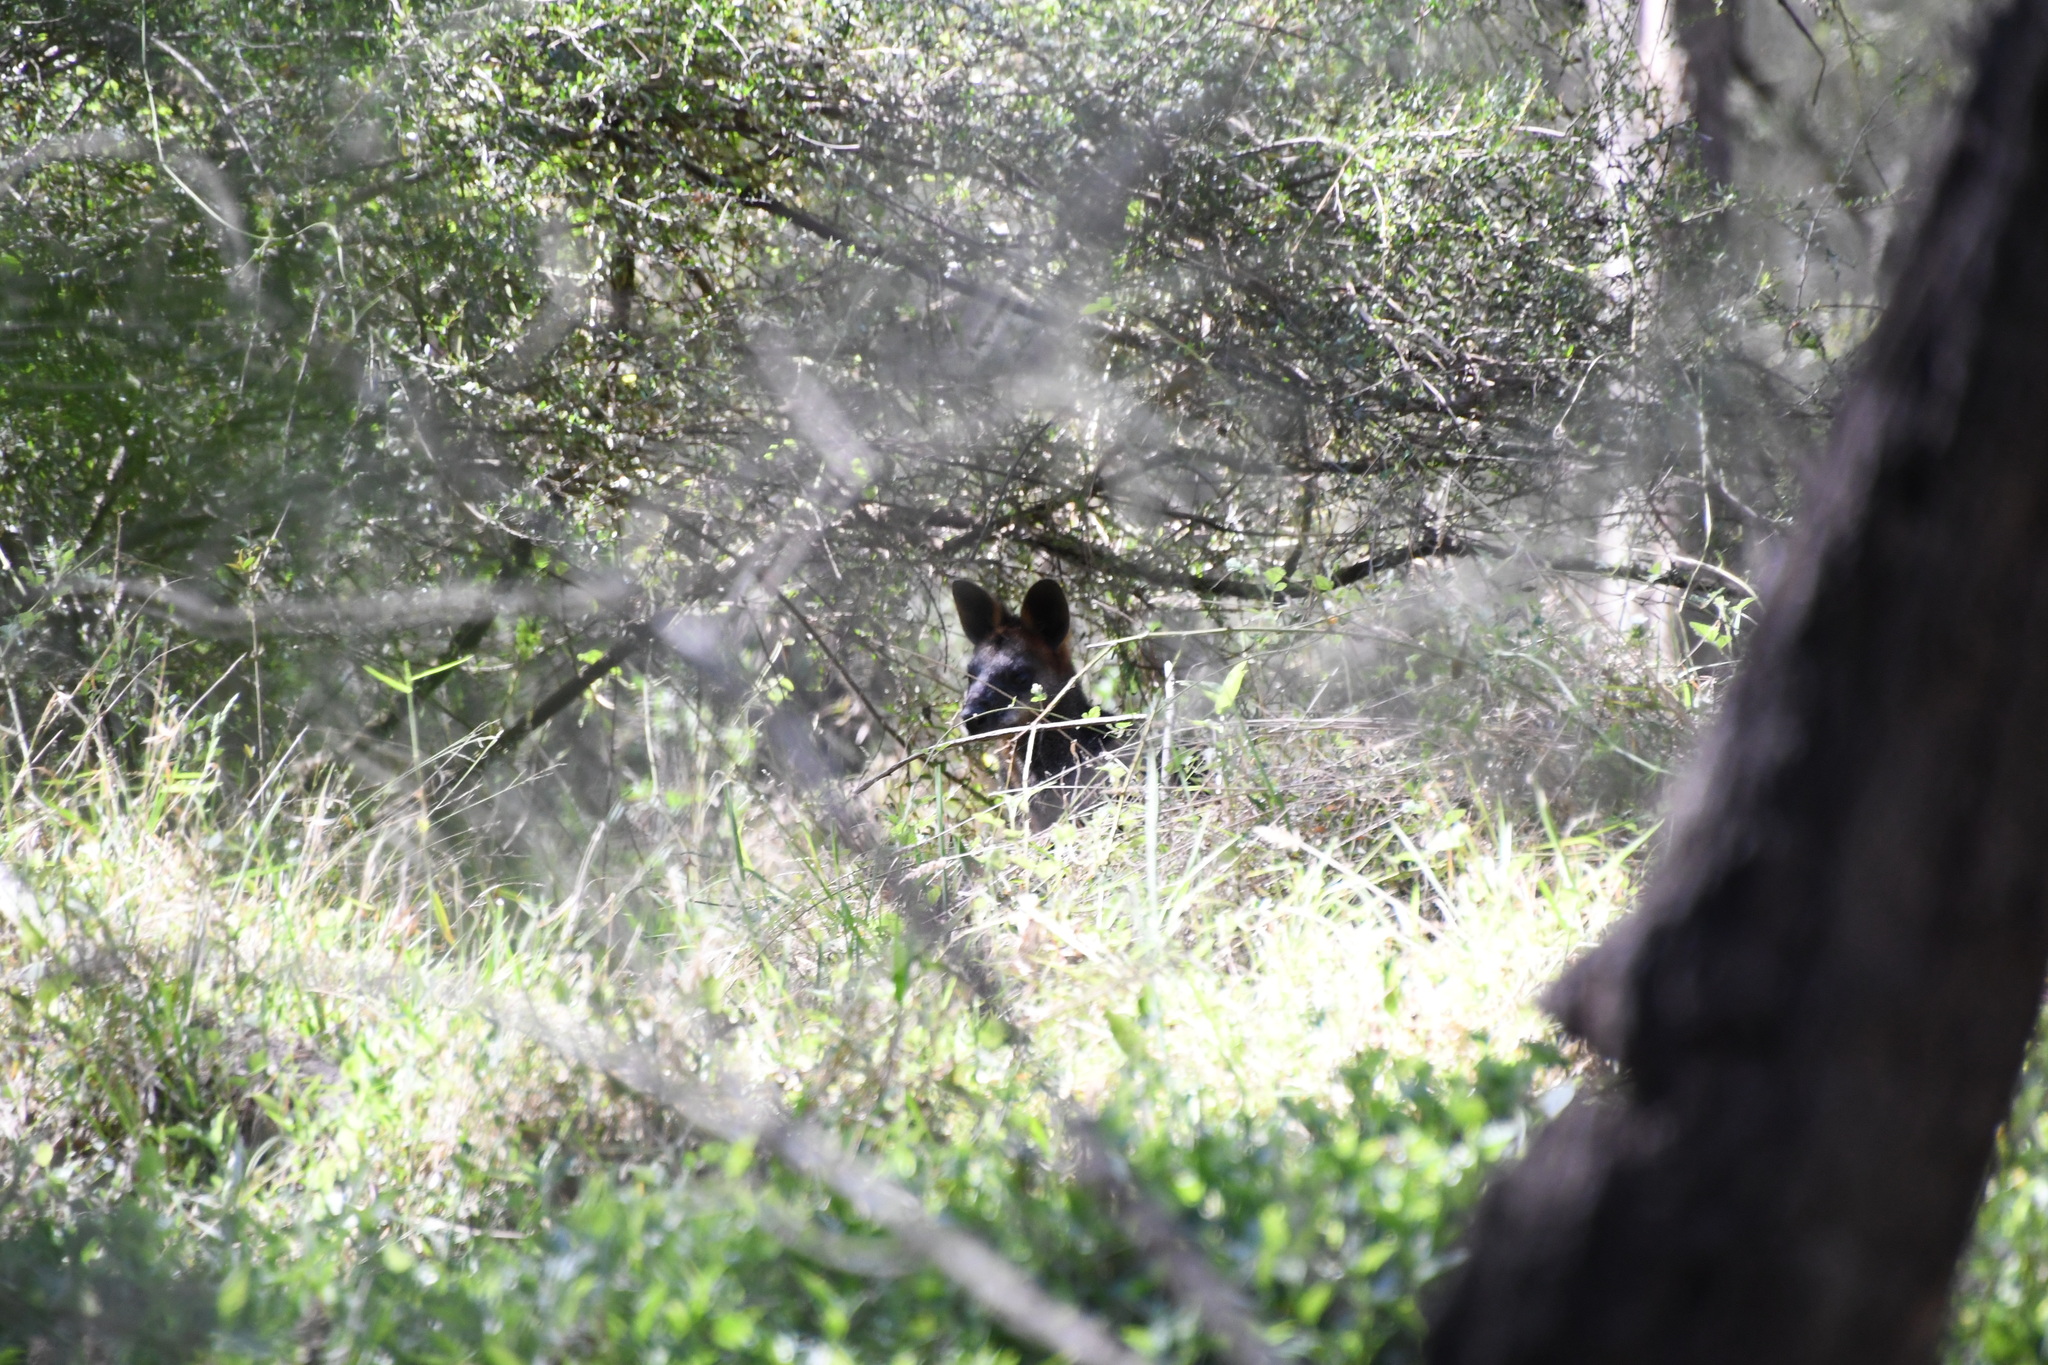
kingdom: Animalia
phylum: Chordata
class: Mammalia
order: Diprotodontia
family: Macropodidae
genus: Wallabia
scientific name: Wallabia bicolor
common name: Swamp wallaby
